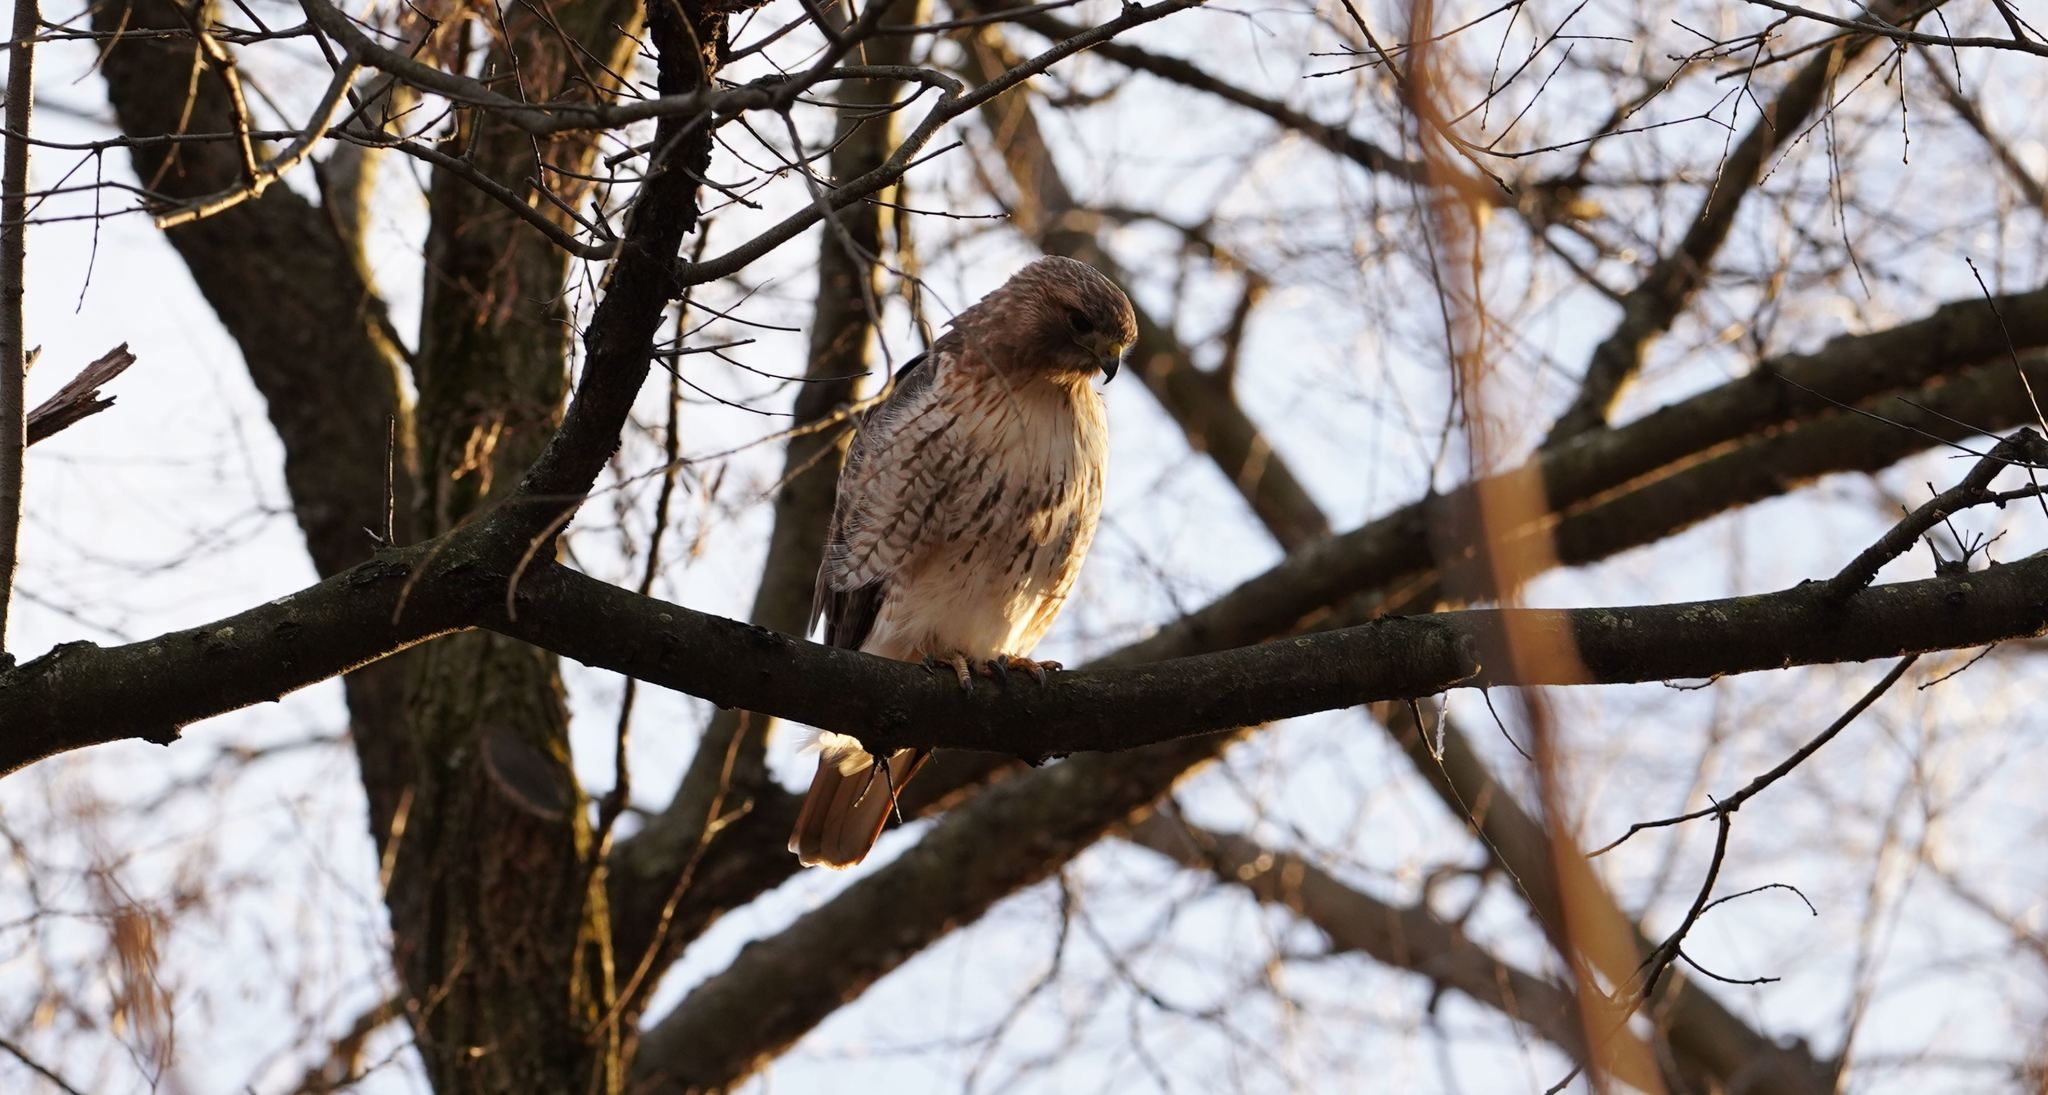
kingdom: Animalia
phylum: Chordata
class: Aves
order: Accipitriformes
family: Accipitridae
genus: Buteo
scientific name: Buteo jamaicensis
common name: Red-tailed hawk
